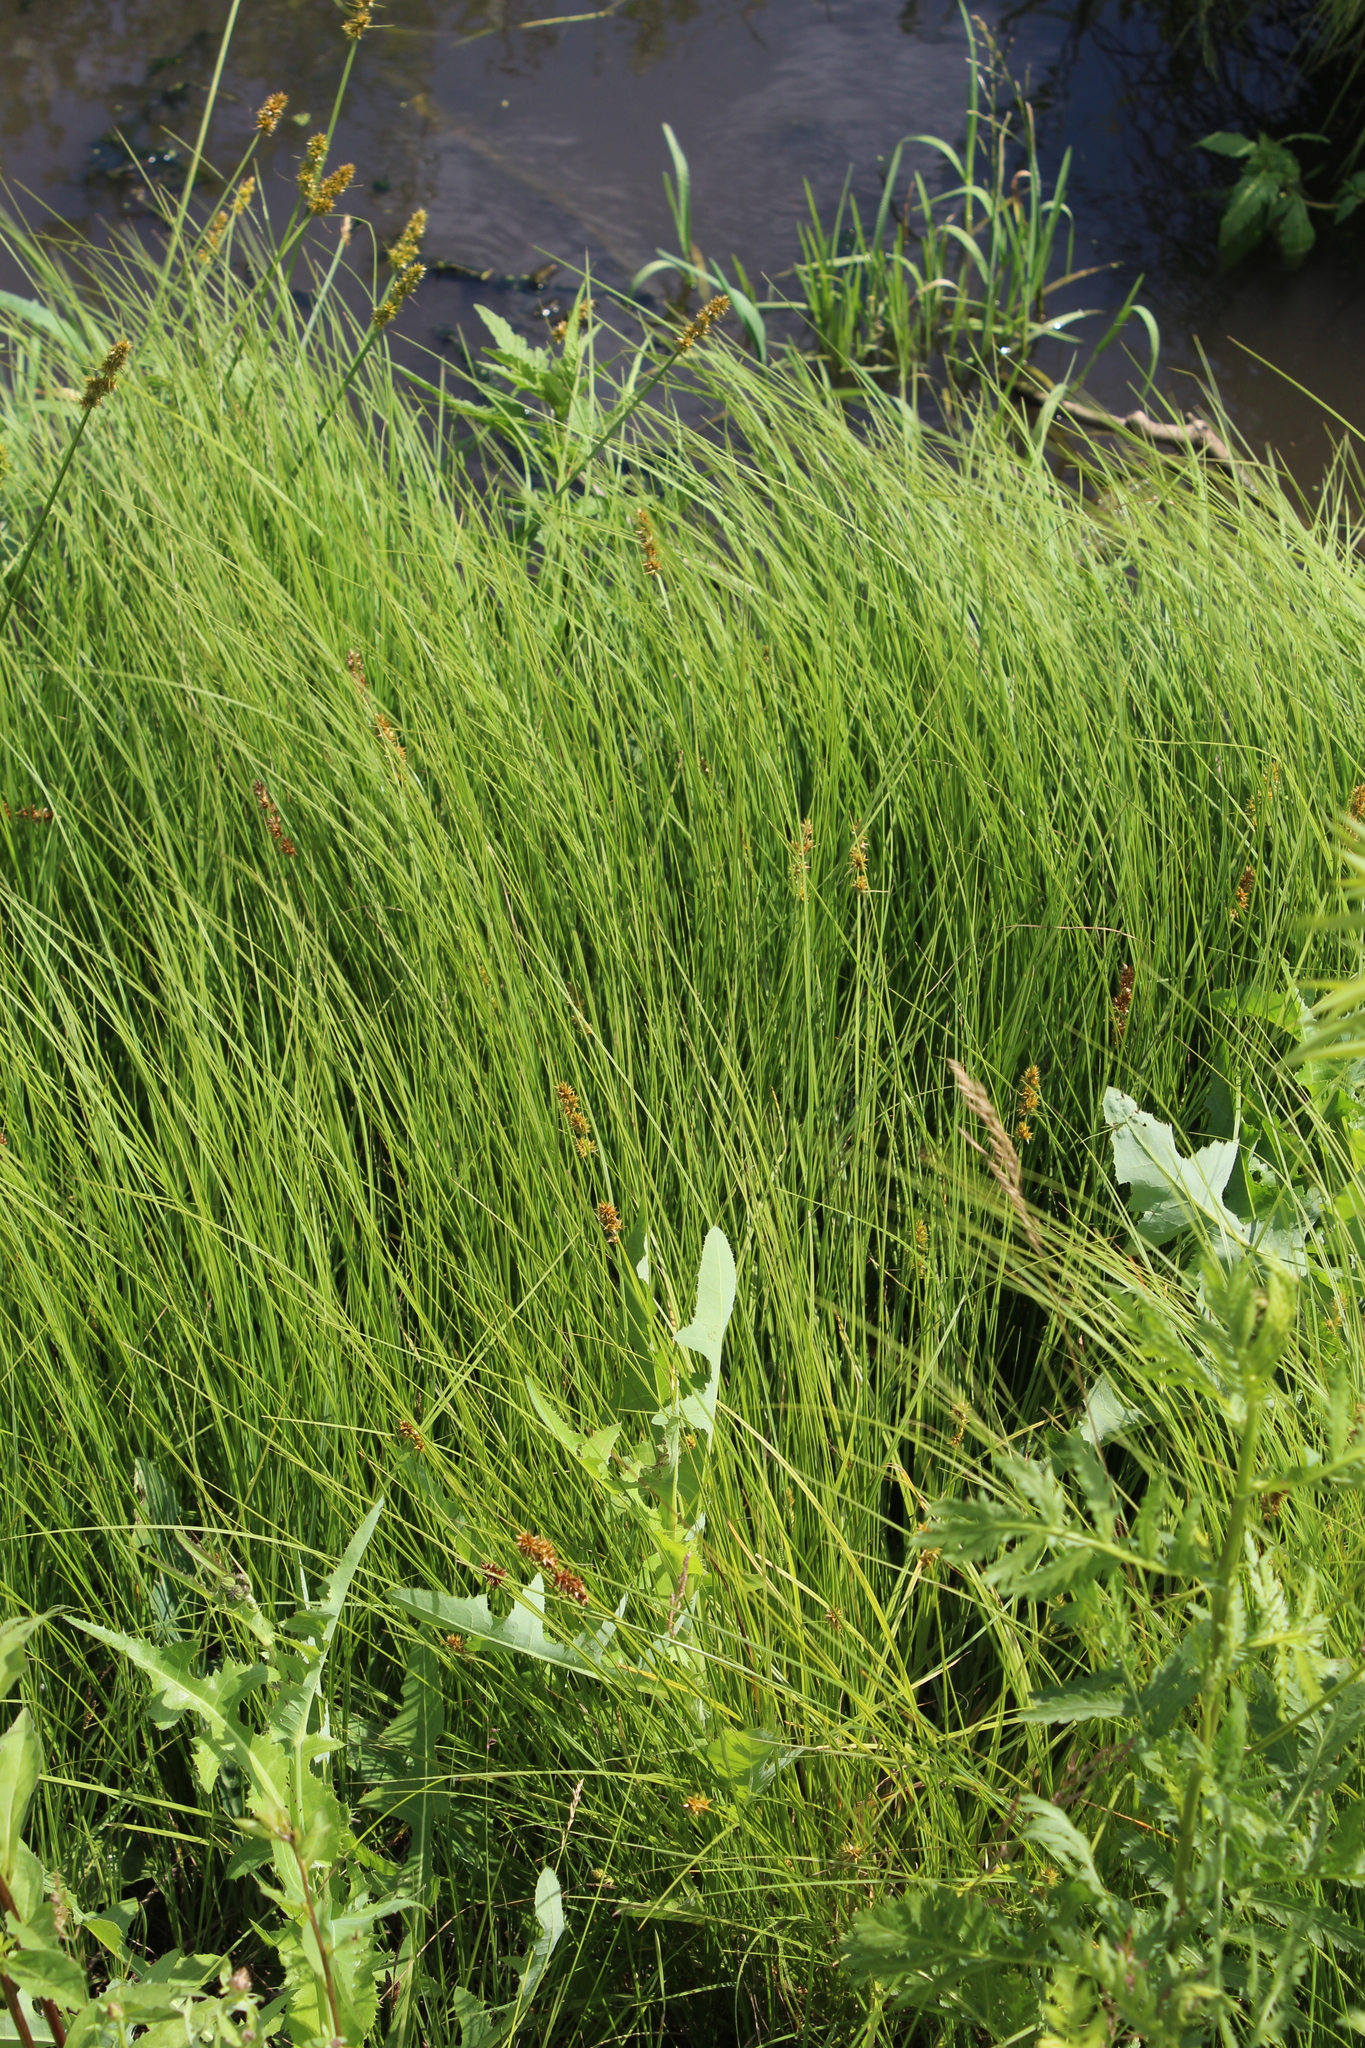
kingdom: Plantae
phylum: Tracheophyta
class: Liliopsida
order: Poales
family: Cyperaceae
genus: Carex
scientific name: Carex vulpina
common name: True fox-sedge
